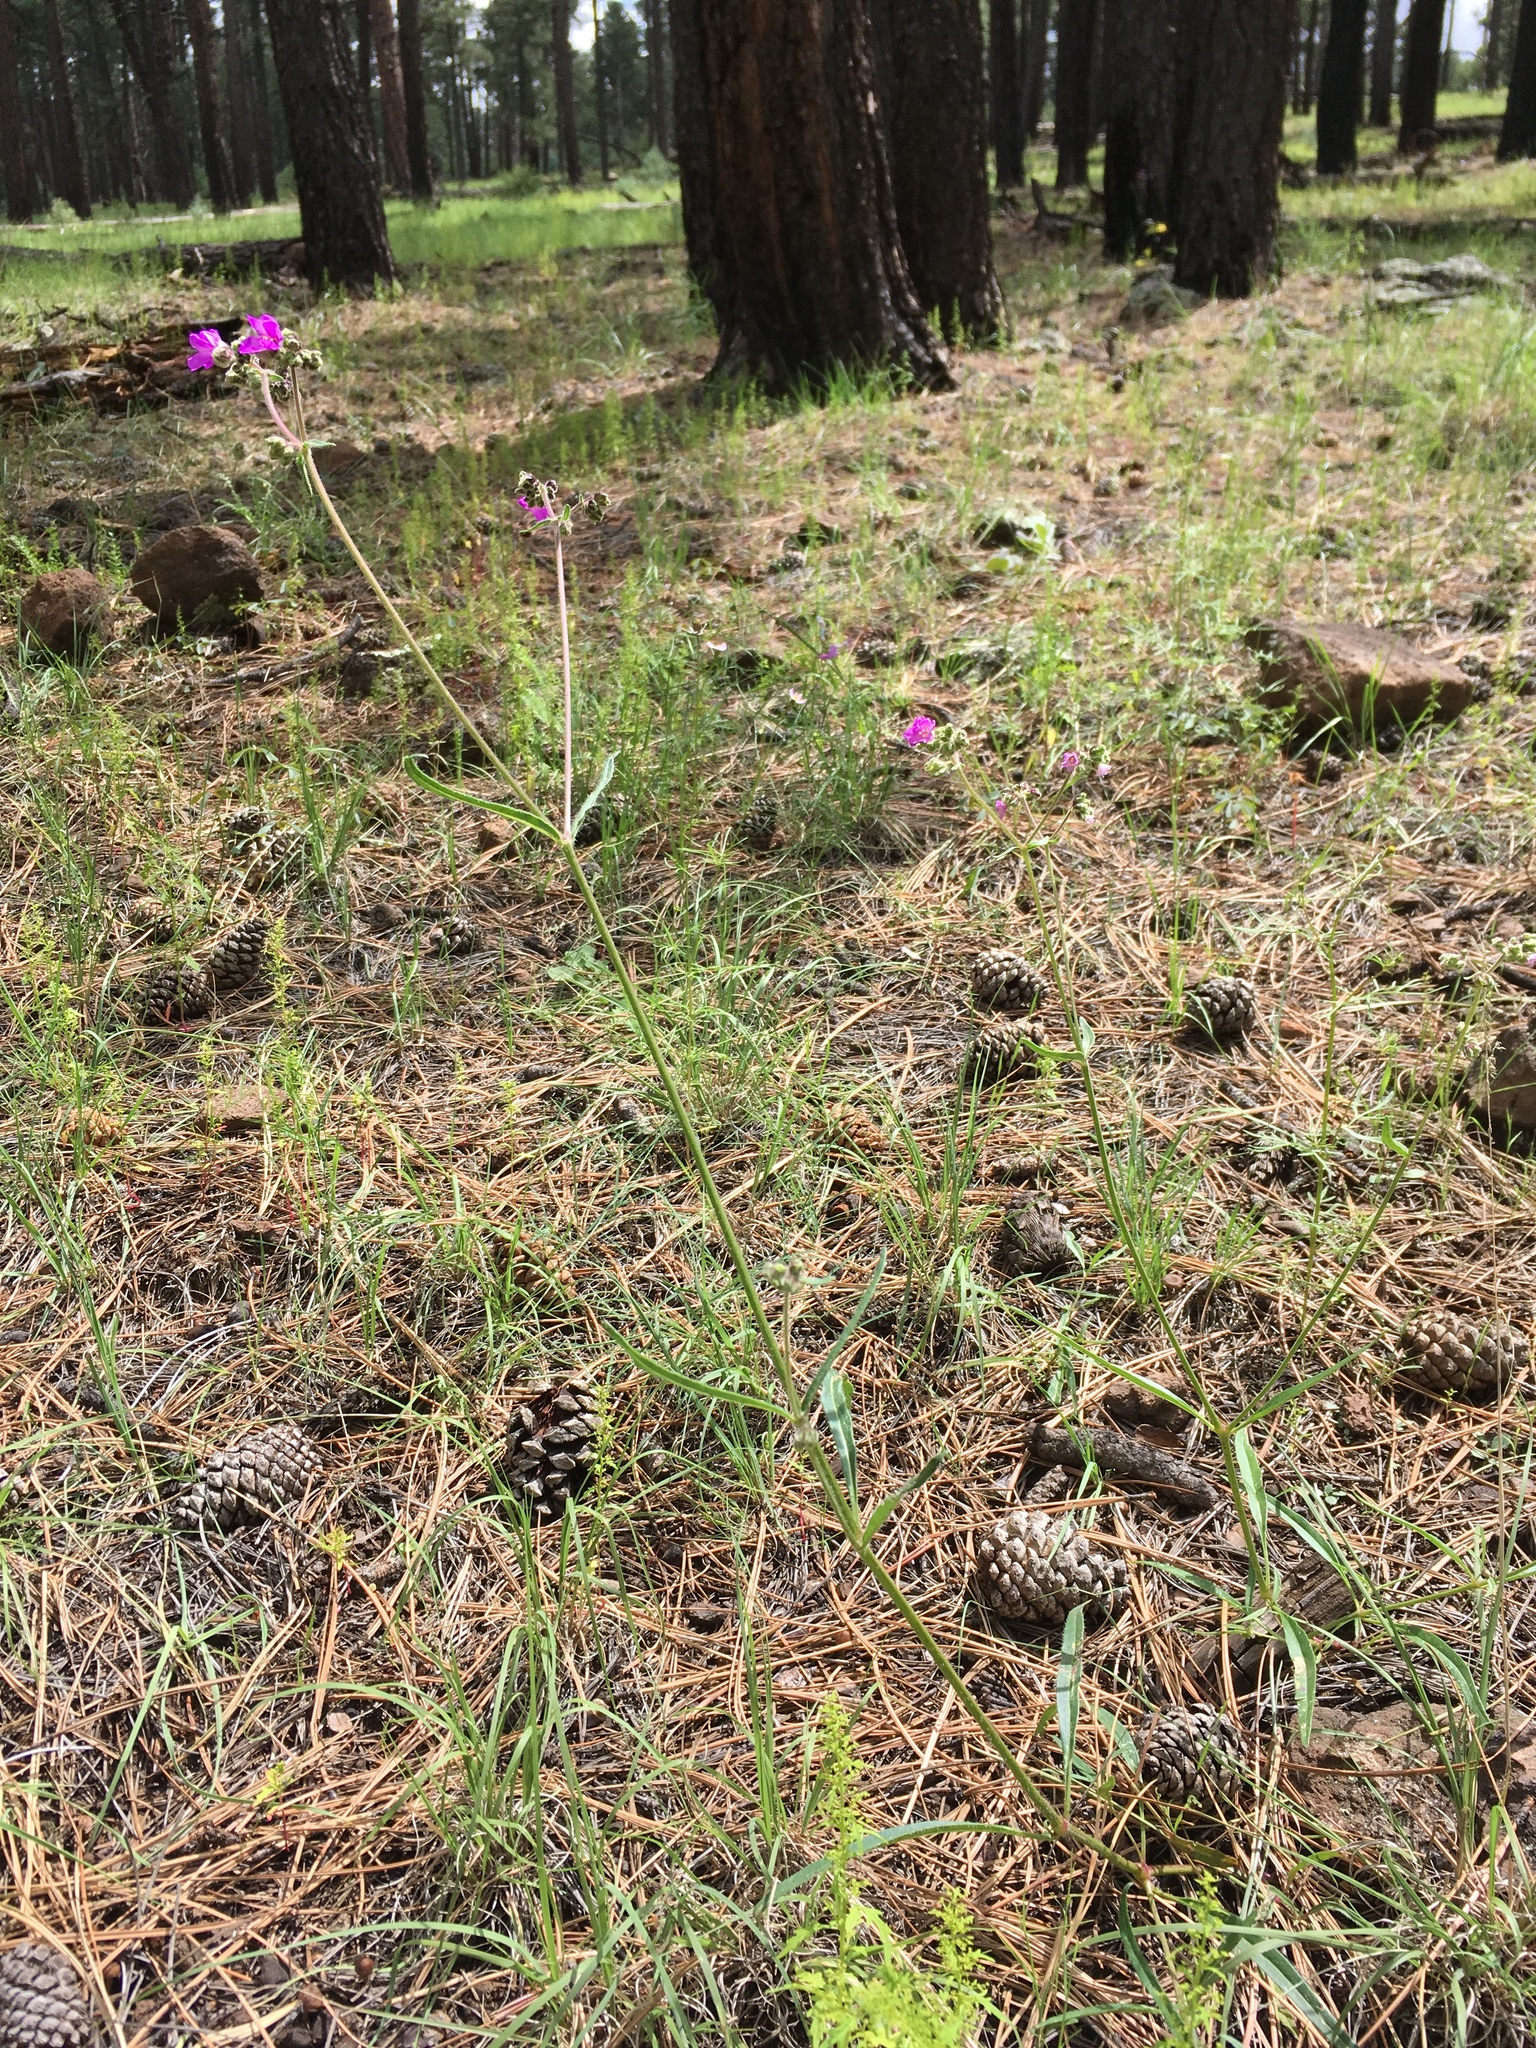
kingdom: Plantae
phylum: Tracheophyta
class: Magnoliopsida
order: Caryophyllales
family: Nyctaginaceae
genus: Mirabilis
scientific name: Mirabilis linearis
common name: Linear-leaved four-o'clock
